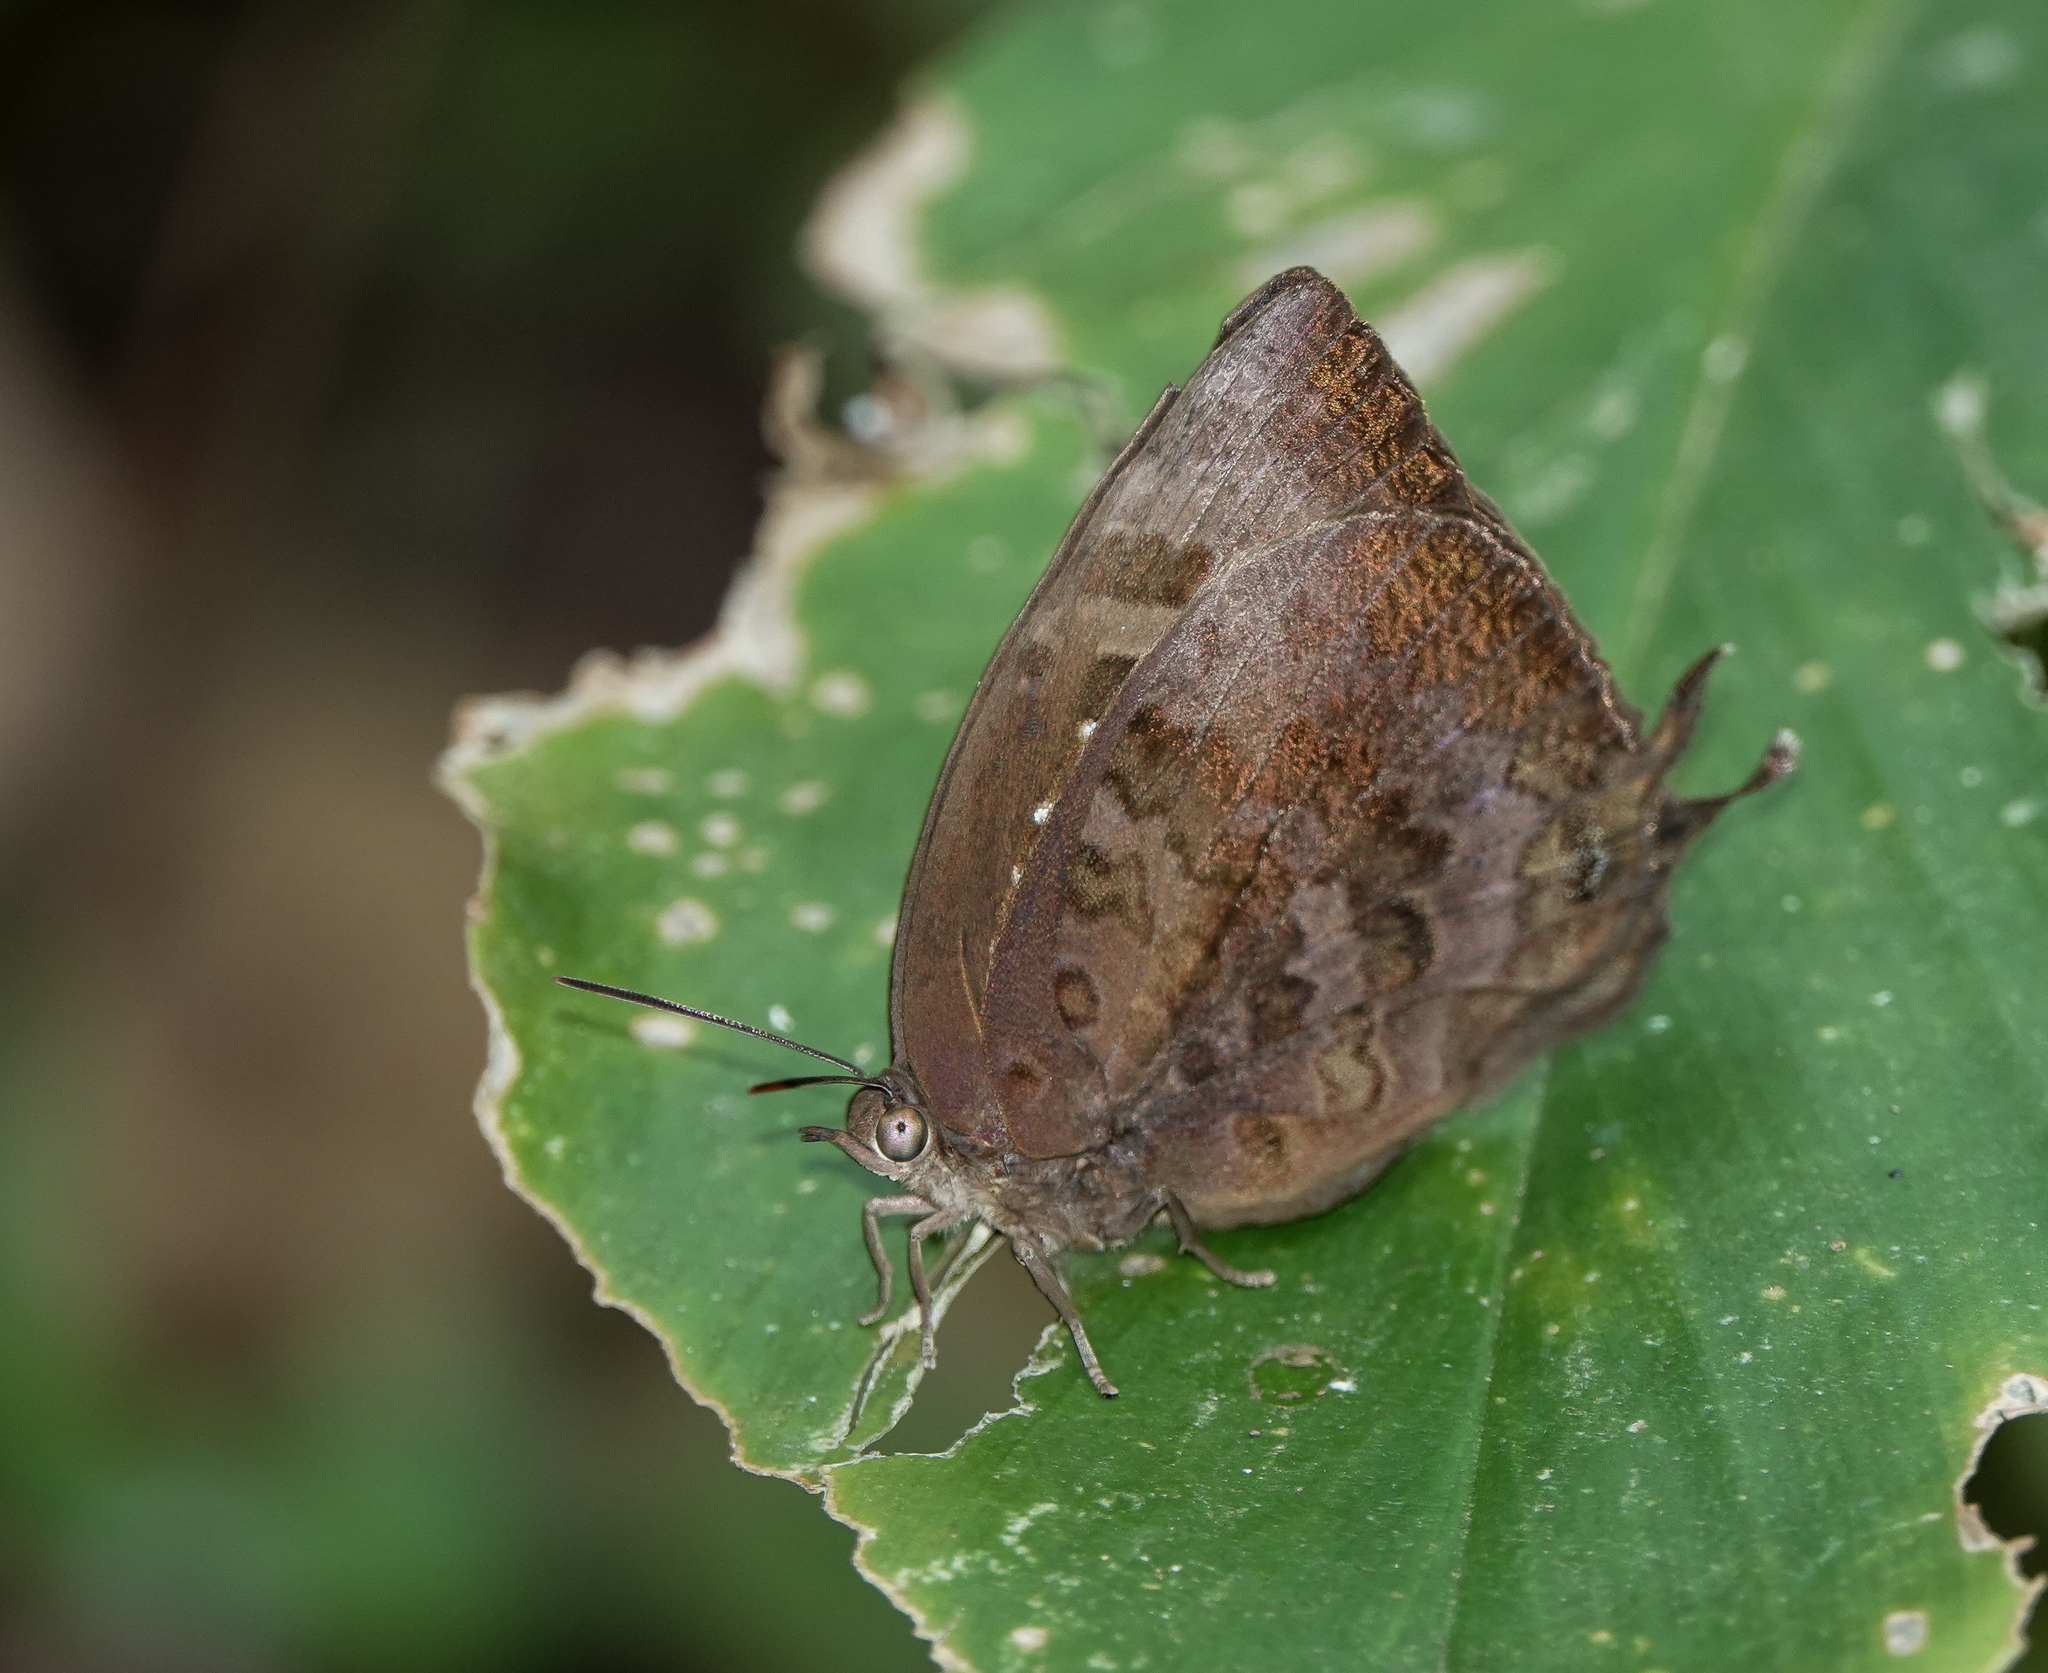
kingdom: Animalia
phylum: Arthropoda
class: Insecta
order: Lepidoptera
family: Lycaenidae
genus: Arhopala
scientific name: Arhopala centaurus
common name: Dull oak-blue
